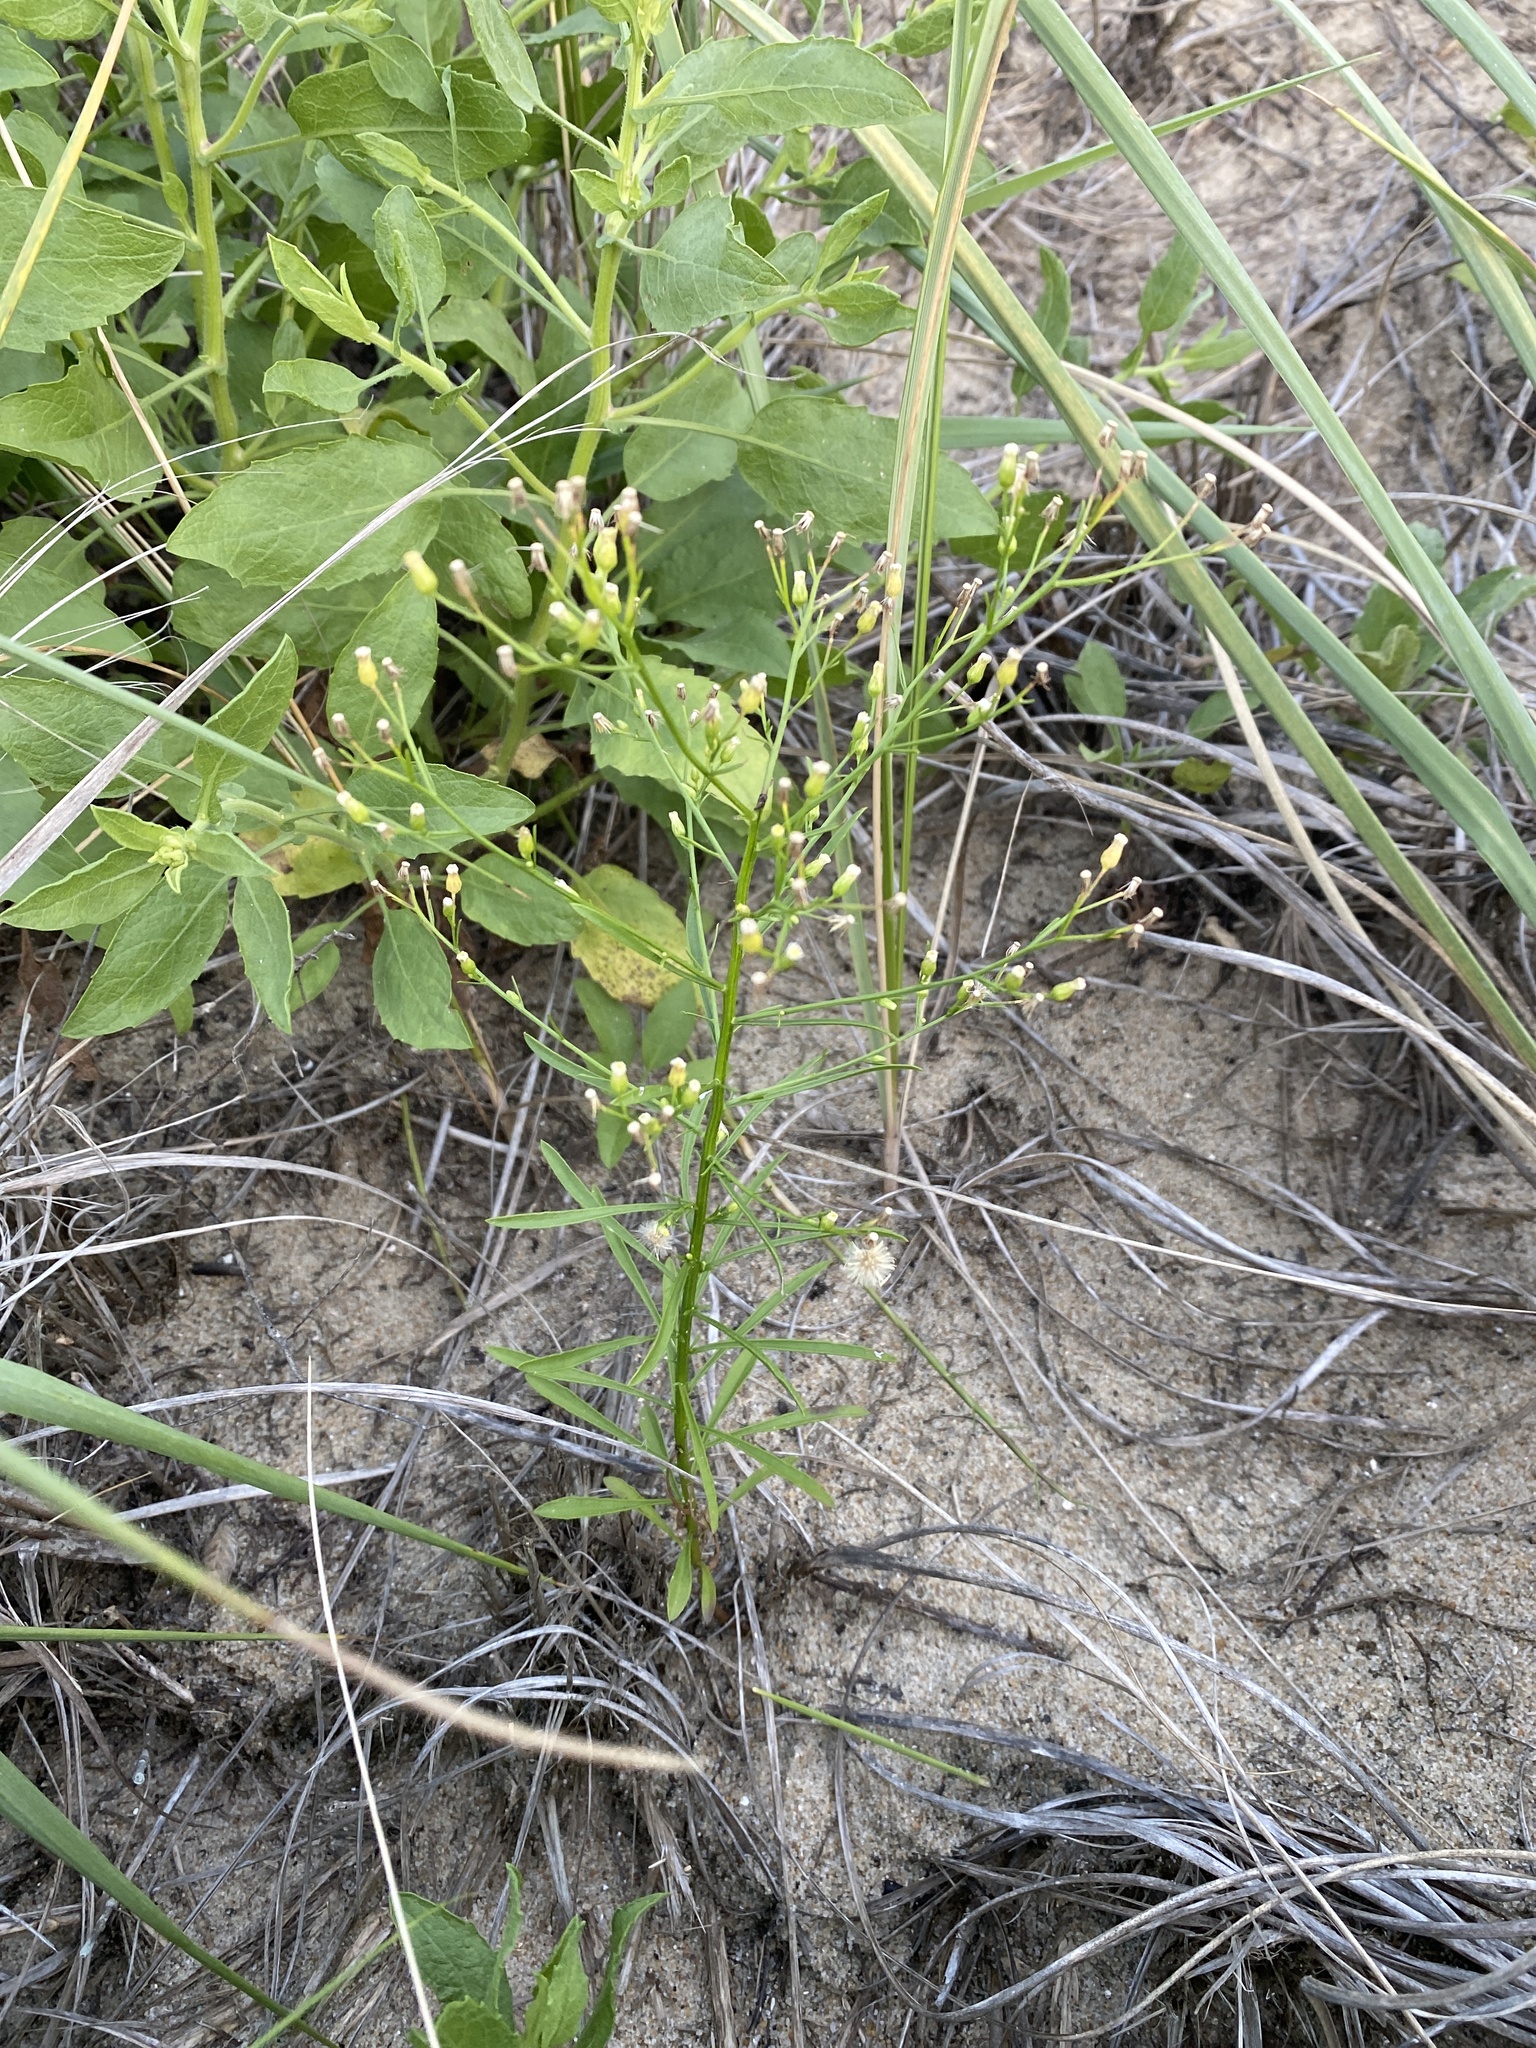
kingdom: Plantae
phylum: Tracheophyta
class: Magnoliopsida
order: Asterales
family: Asteraceae
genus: Erigeron
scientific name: Erigeron canadensis
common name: Canadian fleabane
